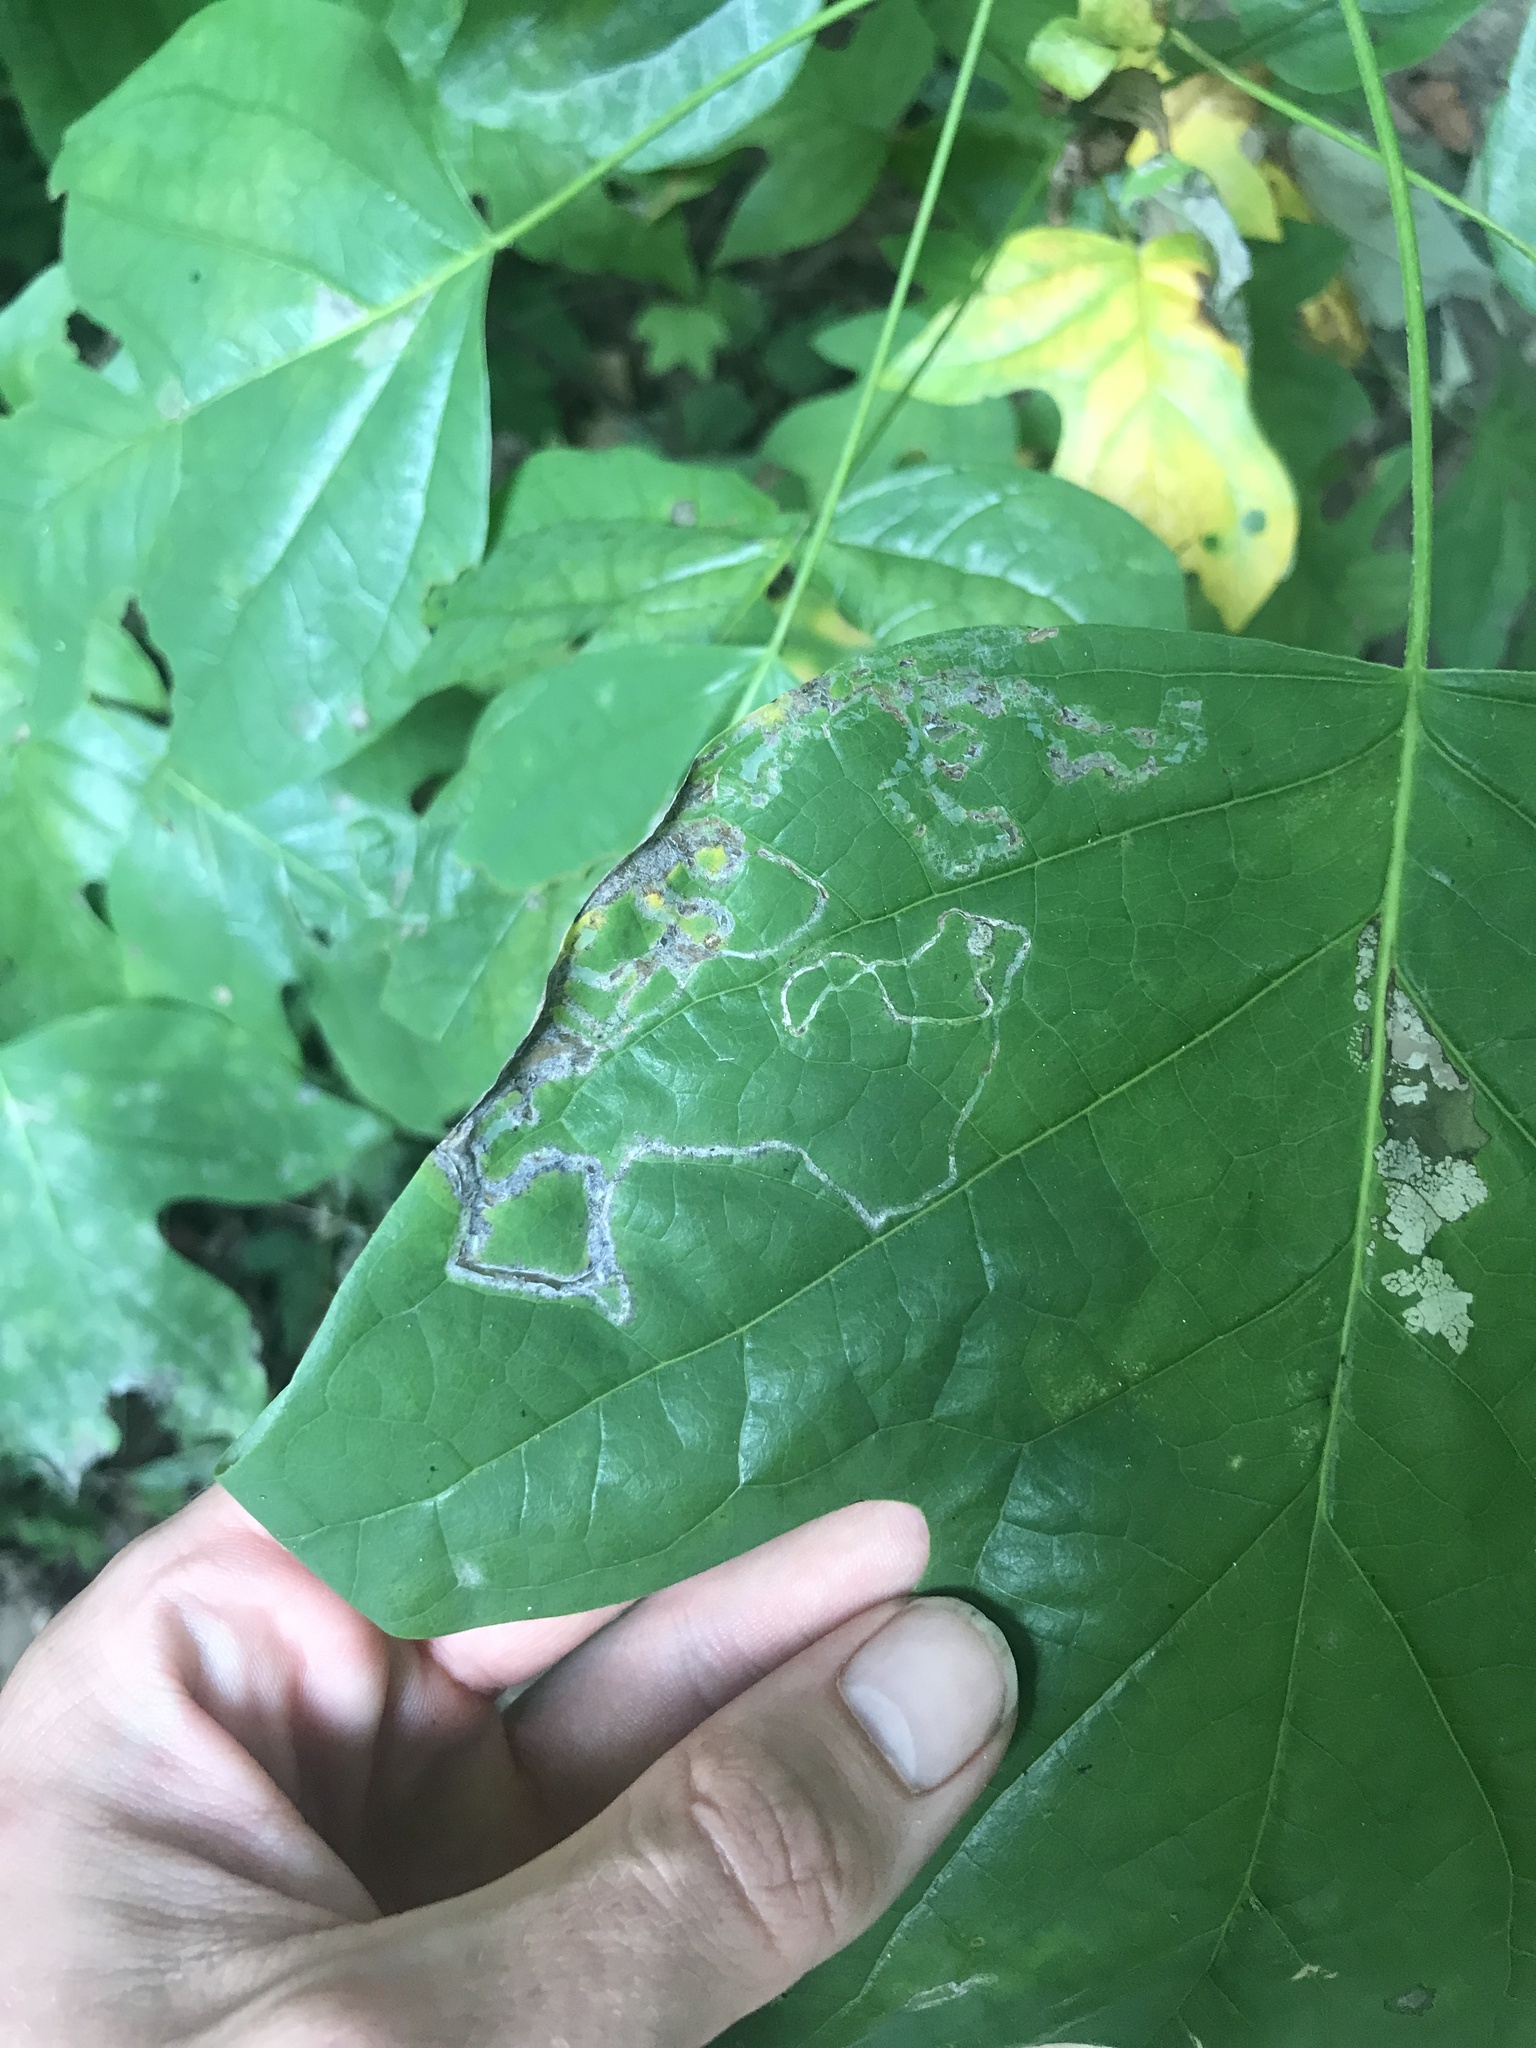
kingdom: Animalia
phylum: Arthropoda
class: Insecta
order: Lepidoptera
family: Gracillariidae
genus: Phyllocnistis
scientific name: Phyllocnistis liriodendronella
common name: Tulip tree leaf miner
